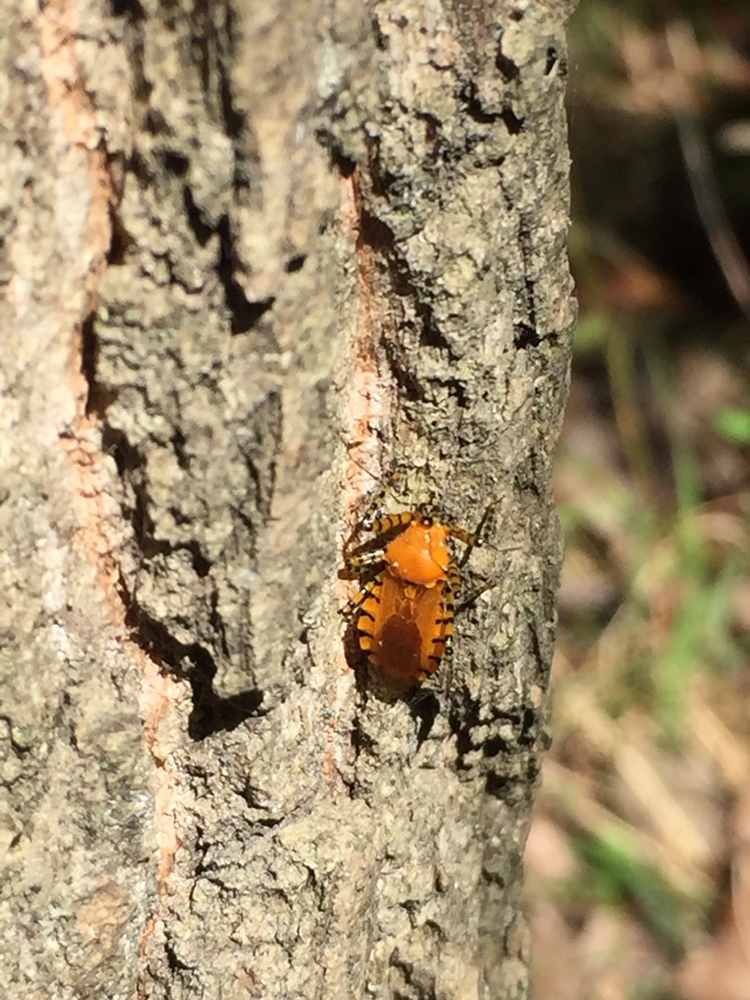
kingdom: Animalia
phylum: Arthropoda
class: Insecta
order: Hemiptera
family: Reduviidae
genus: Pselliopus
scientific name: Pselliopus barberi
